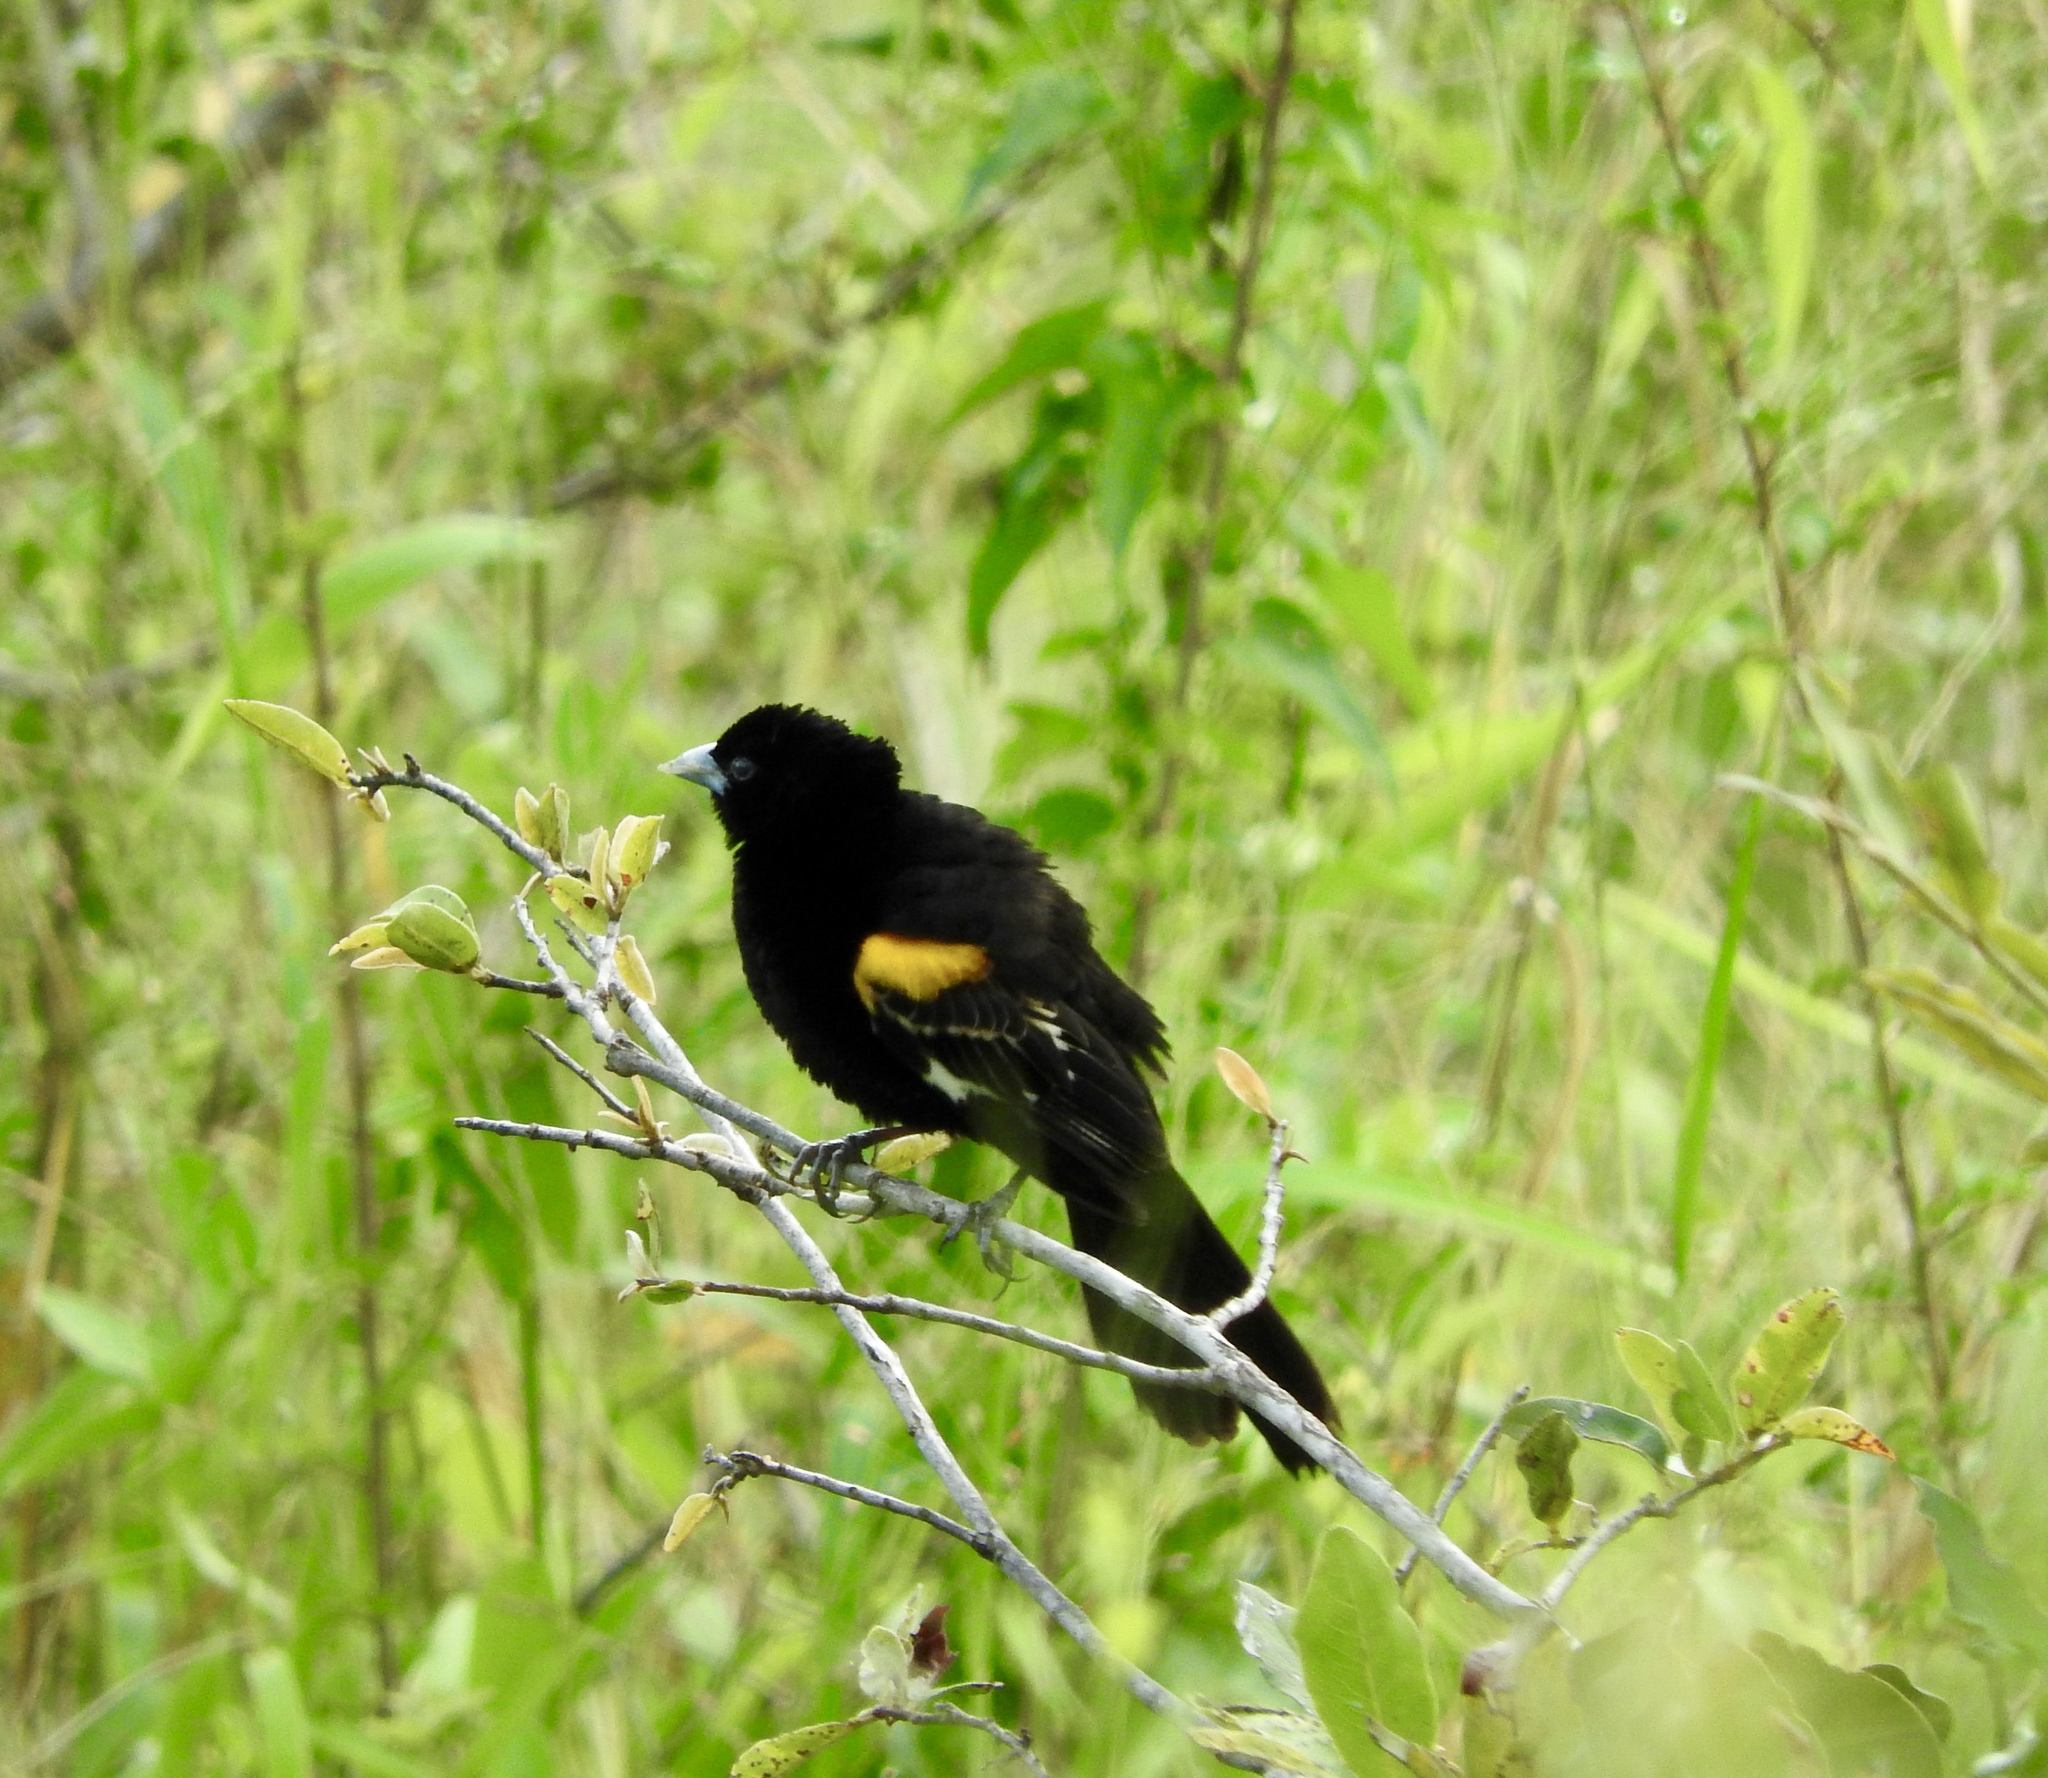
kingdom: Animalia
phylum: Chordata
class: Aves
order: Passeriformes
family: Ploceidae
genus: Euplectes
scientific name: Euplectes albonotatus
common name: White-winged widowbird
